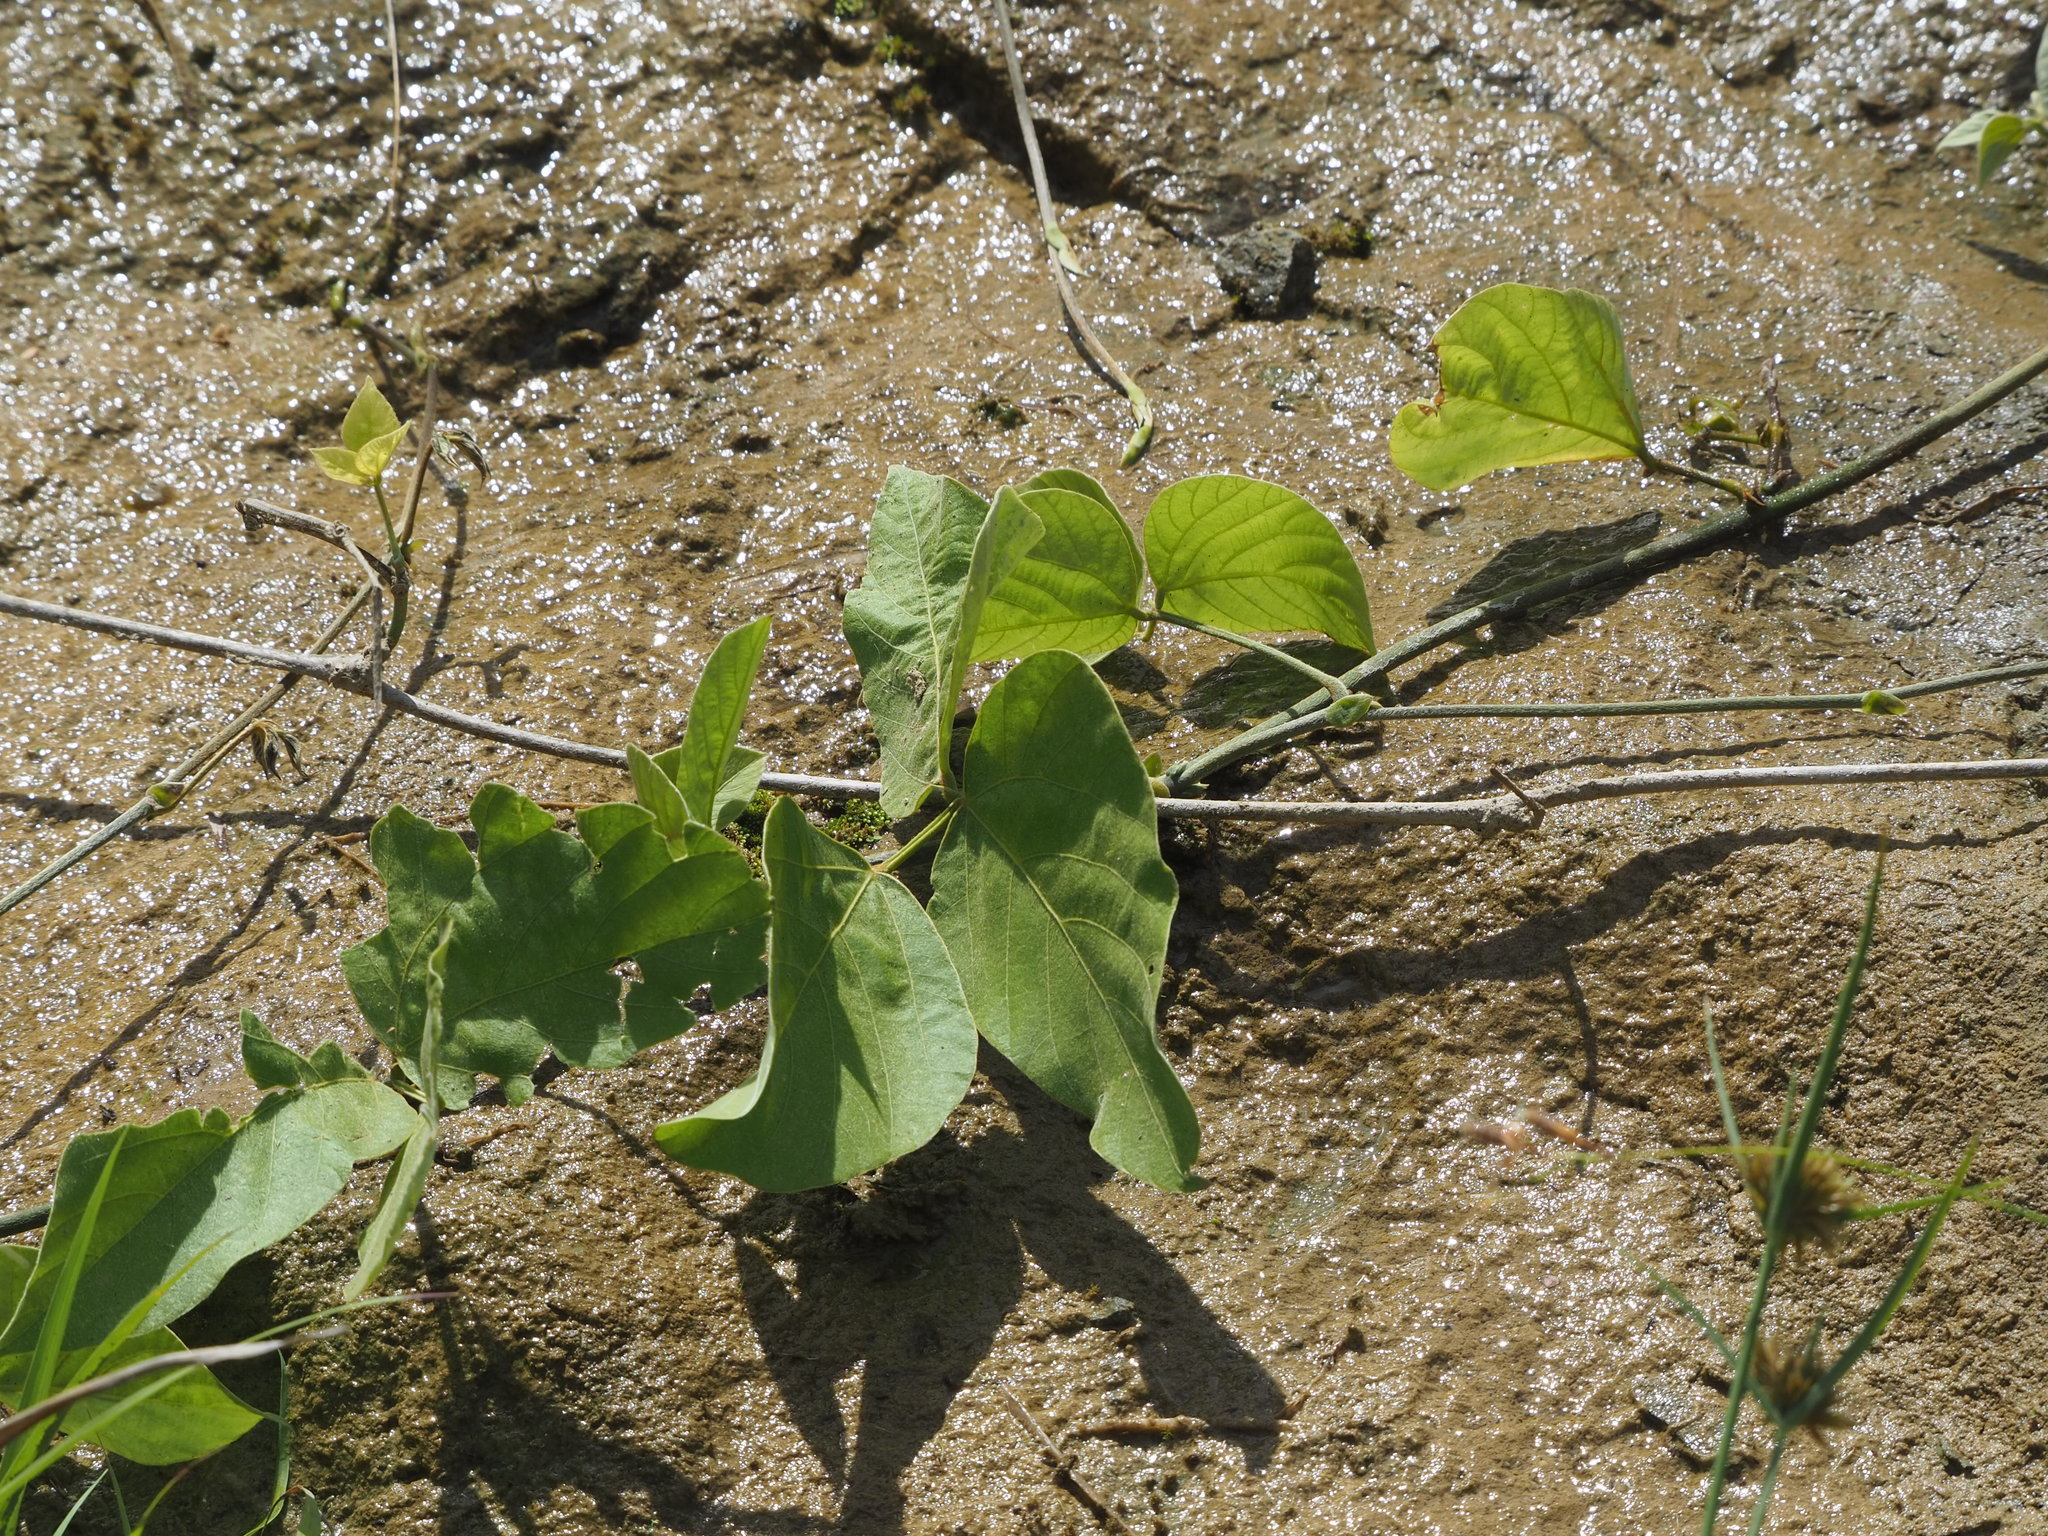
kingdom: Plantae
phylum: Tracheophyta
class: Magnoliopsida
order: Fabales
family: Fabaceae
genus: Pueraria
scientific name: Pueraria montana
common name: Kudzu
